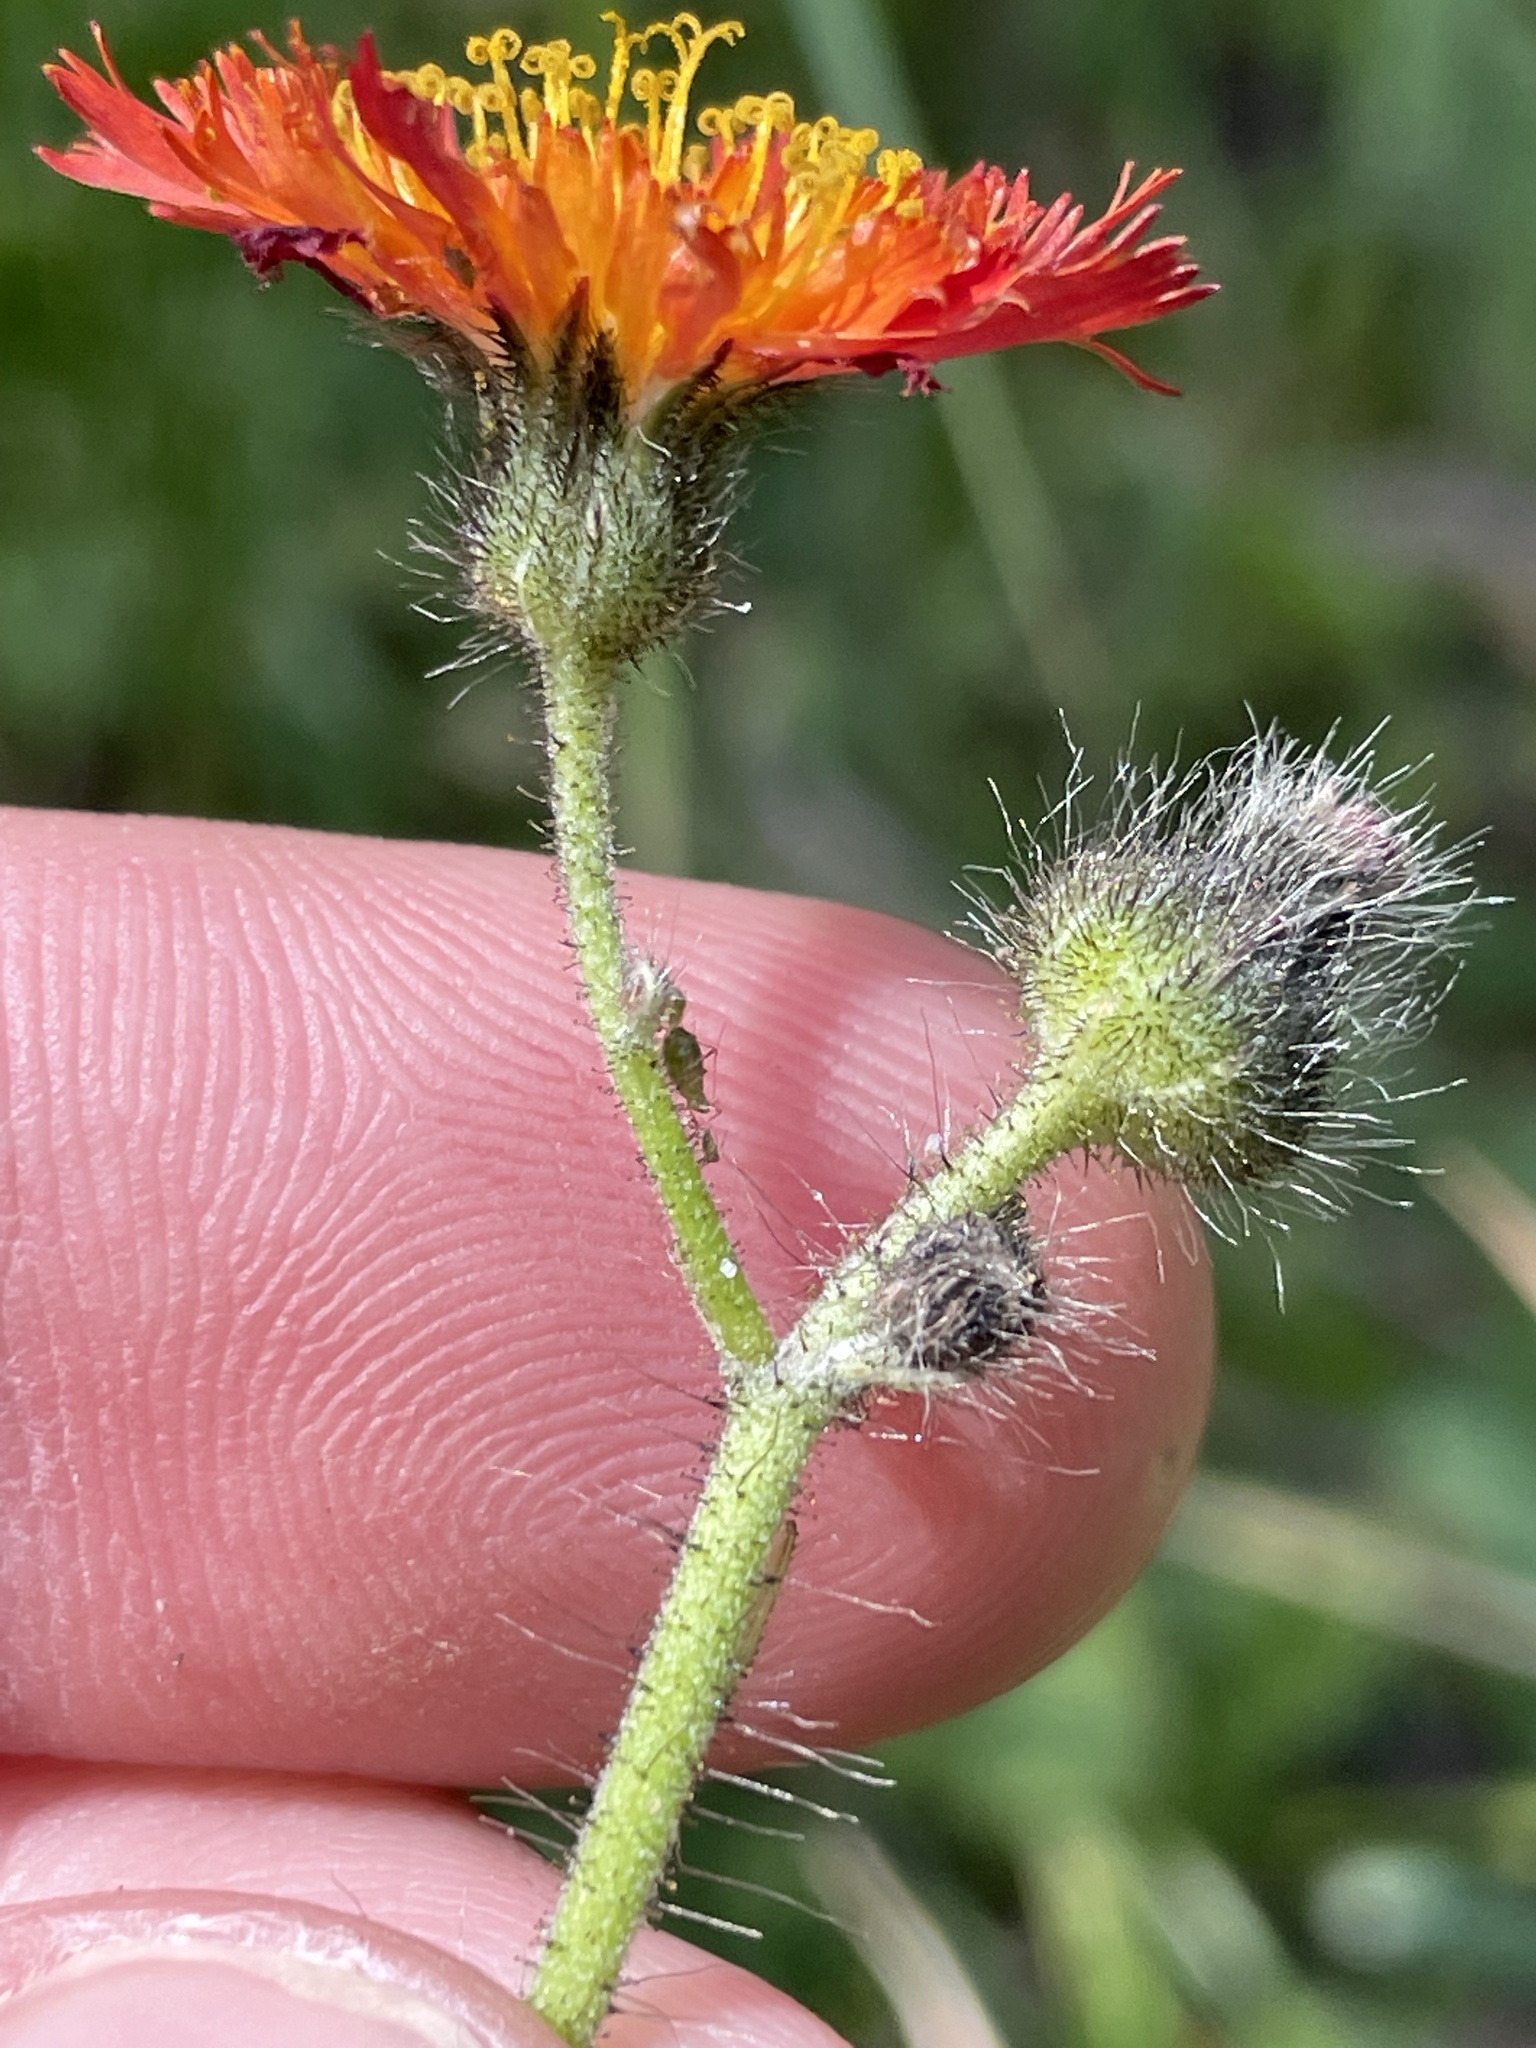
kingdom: Plantae
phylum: Tracheophyta
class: Magnoliopsida
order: Asterales
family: Asteraceae
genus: Pilosella
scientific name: Pilosella aurantiaca
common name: Fox-and-cubs
